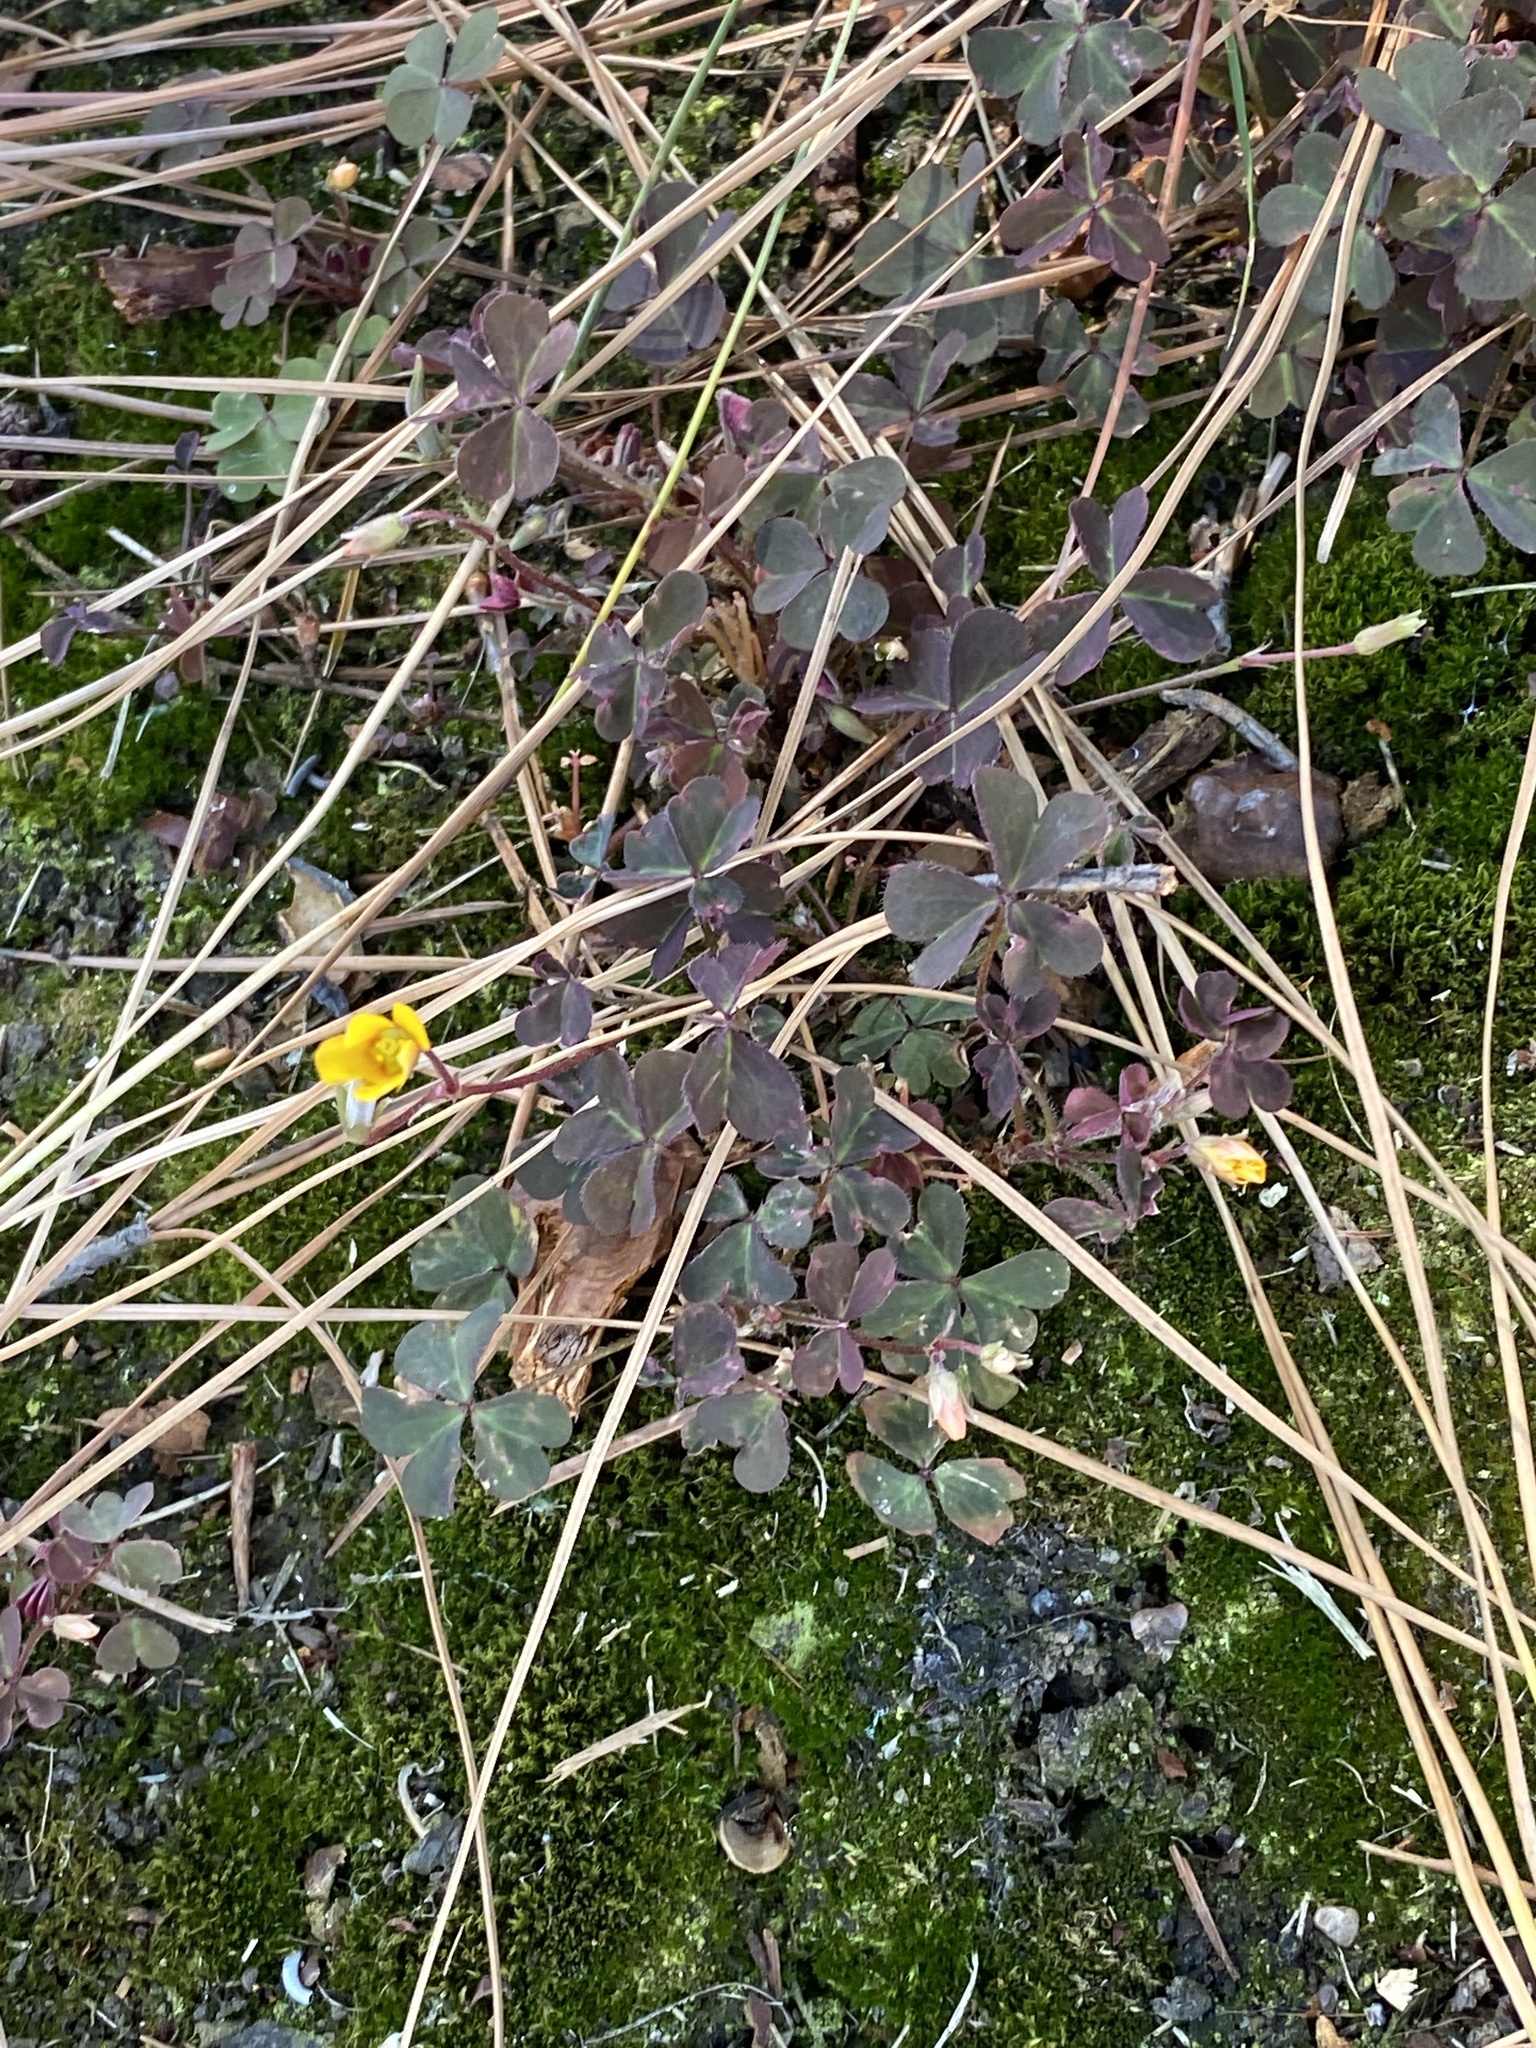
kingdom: Plantae
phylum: Tracheophyta
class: Magnoliopsida
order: Oxalidales
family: Oxalidaceae
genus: Oxalis
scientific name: Oxalis corniculata
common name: Procumbent yellow-sorrel
